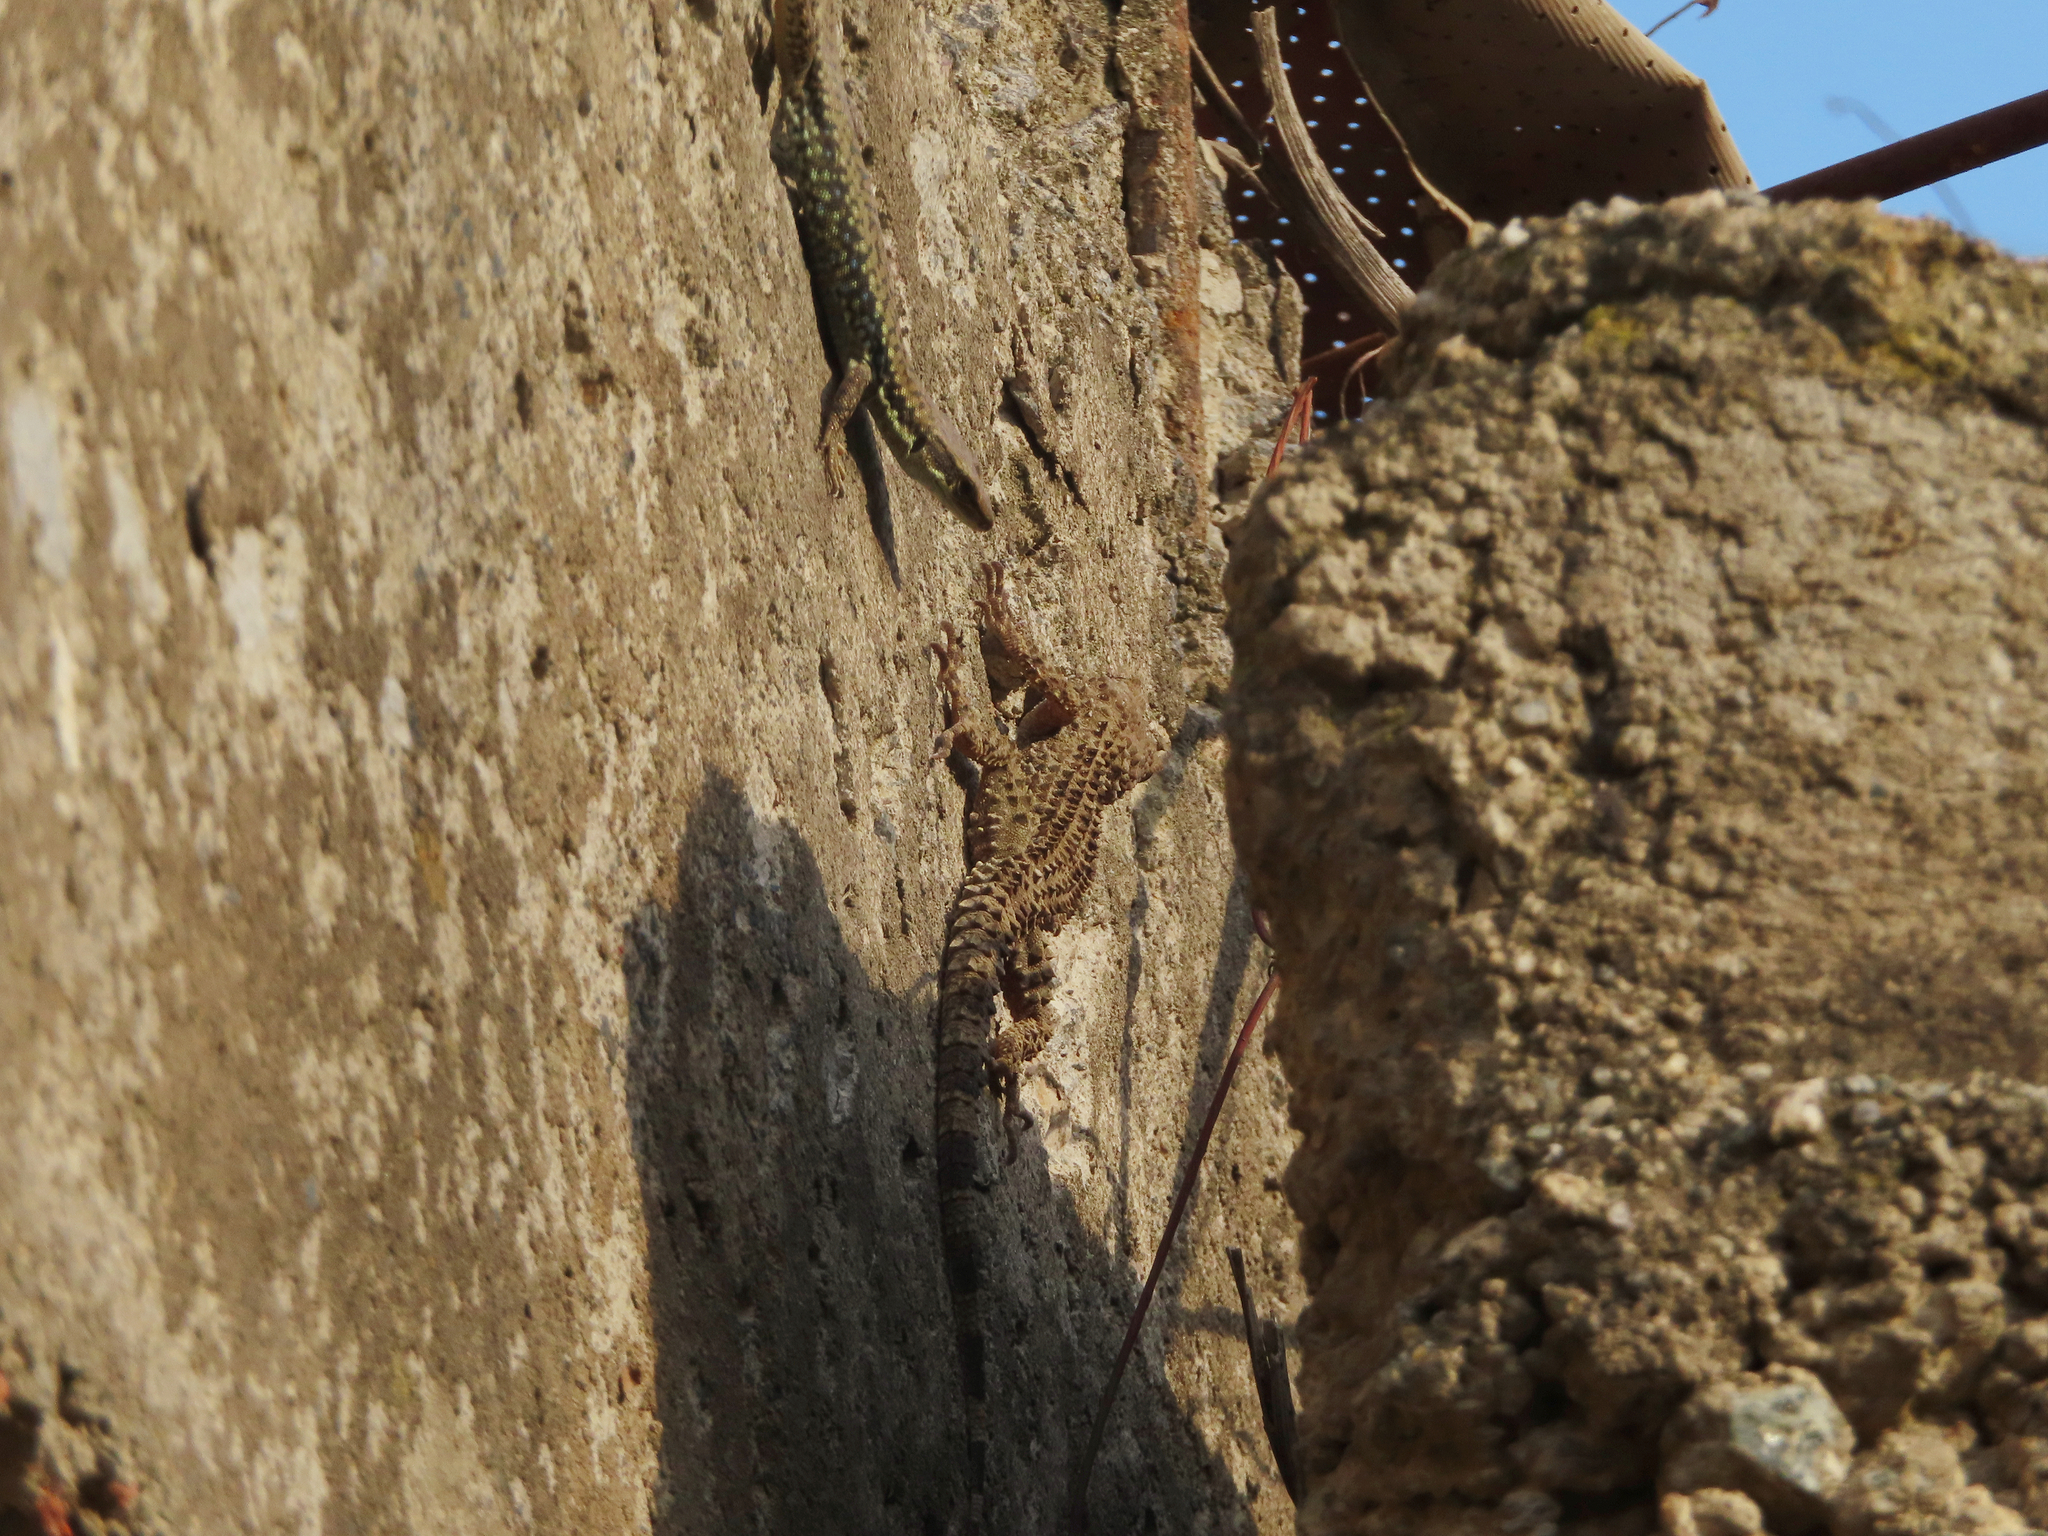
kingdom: Animalia
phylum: Chordata
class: Squamata
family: Lacertidae
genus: Darevskia
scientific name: Darevskia raddei
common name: Radde's lizard
